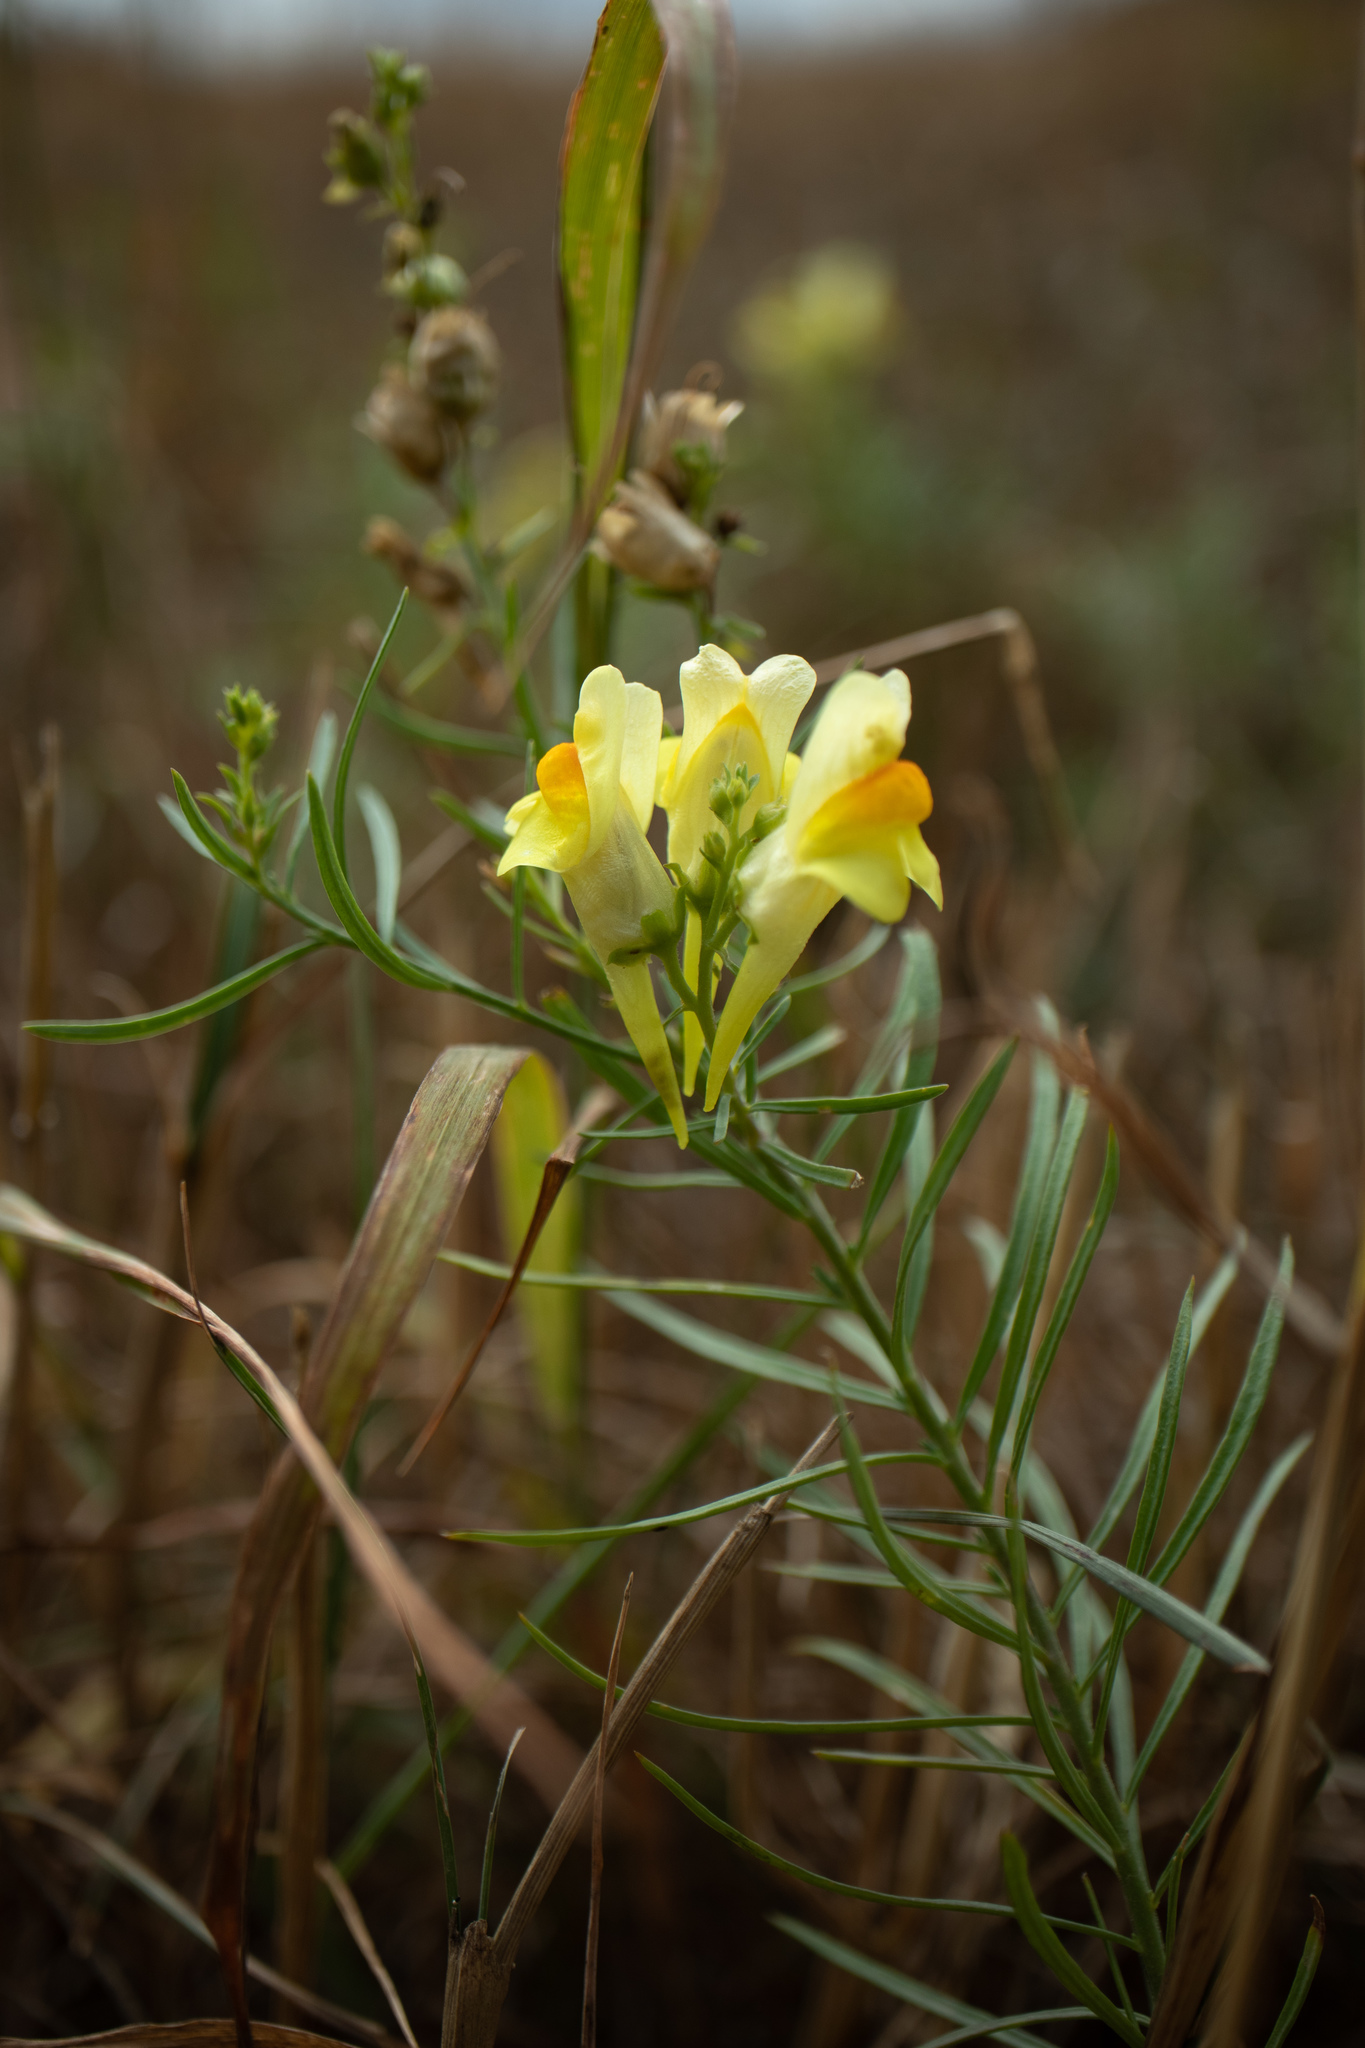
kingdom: Plantae
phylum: Tracheophyta
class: Magnoliopsida
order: Lamiales
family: Plantaginaceae
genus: Linaria
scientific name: Linaria vulgaris
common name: Butter and eggs
